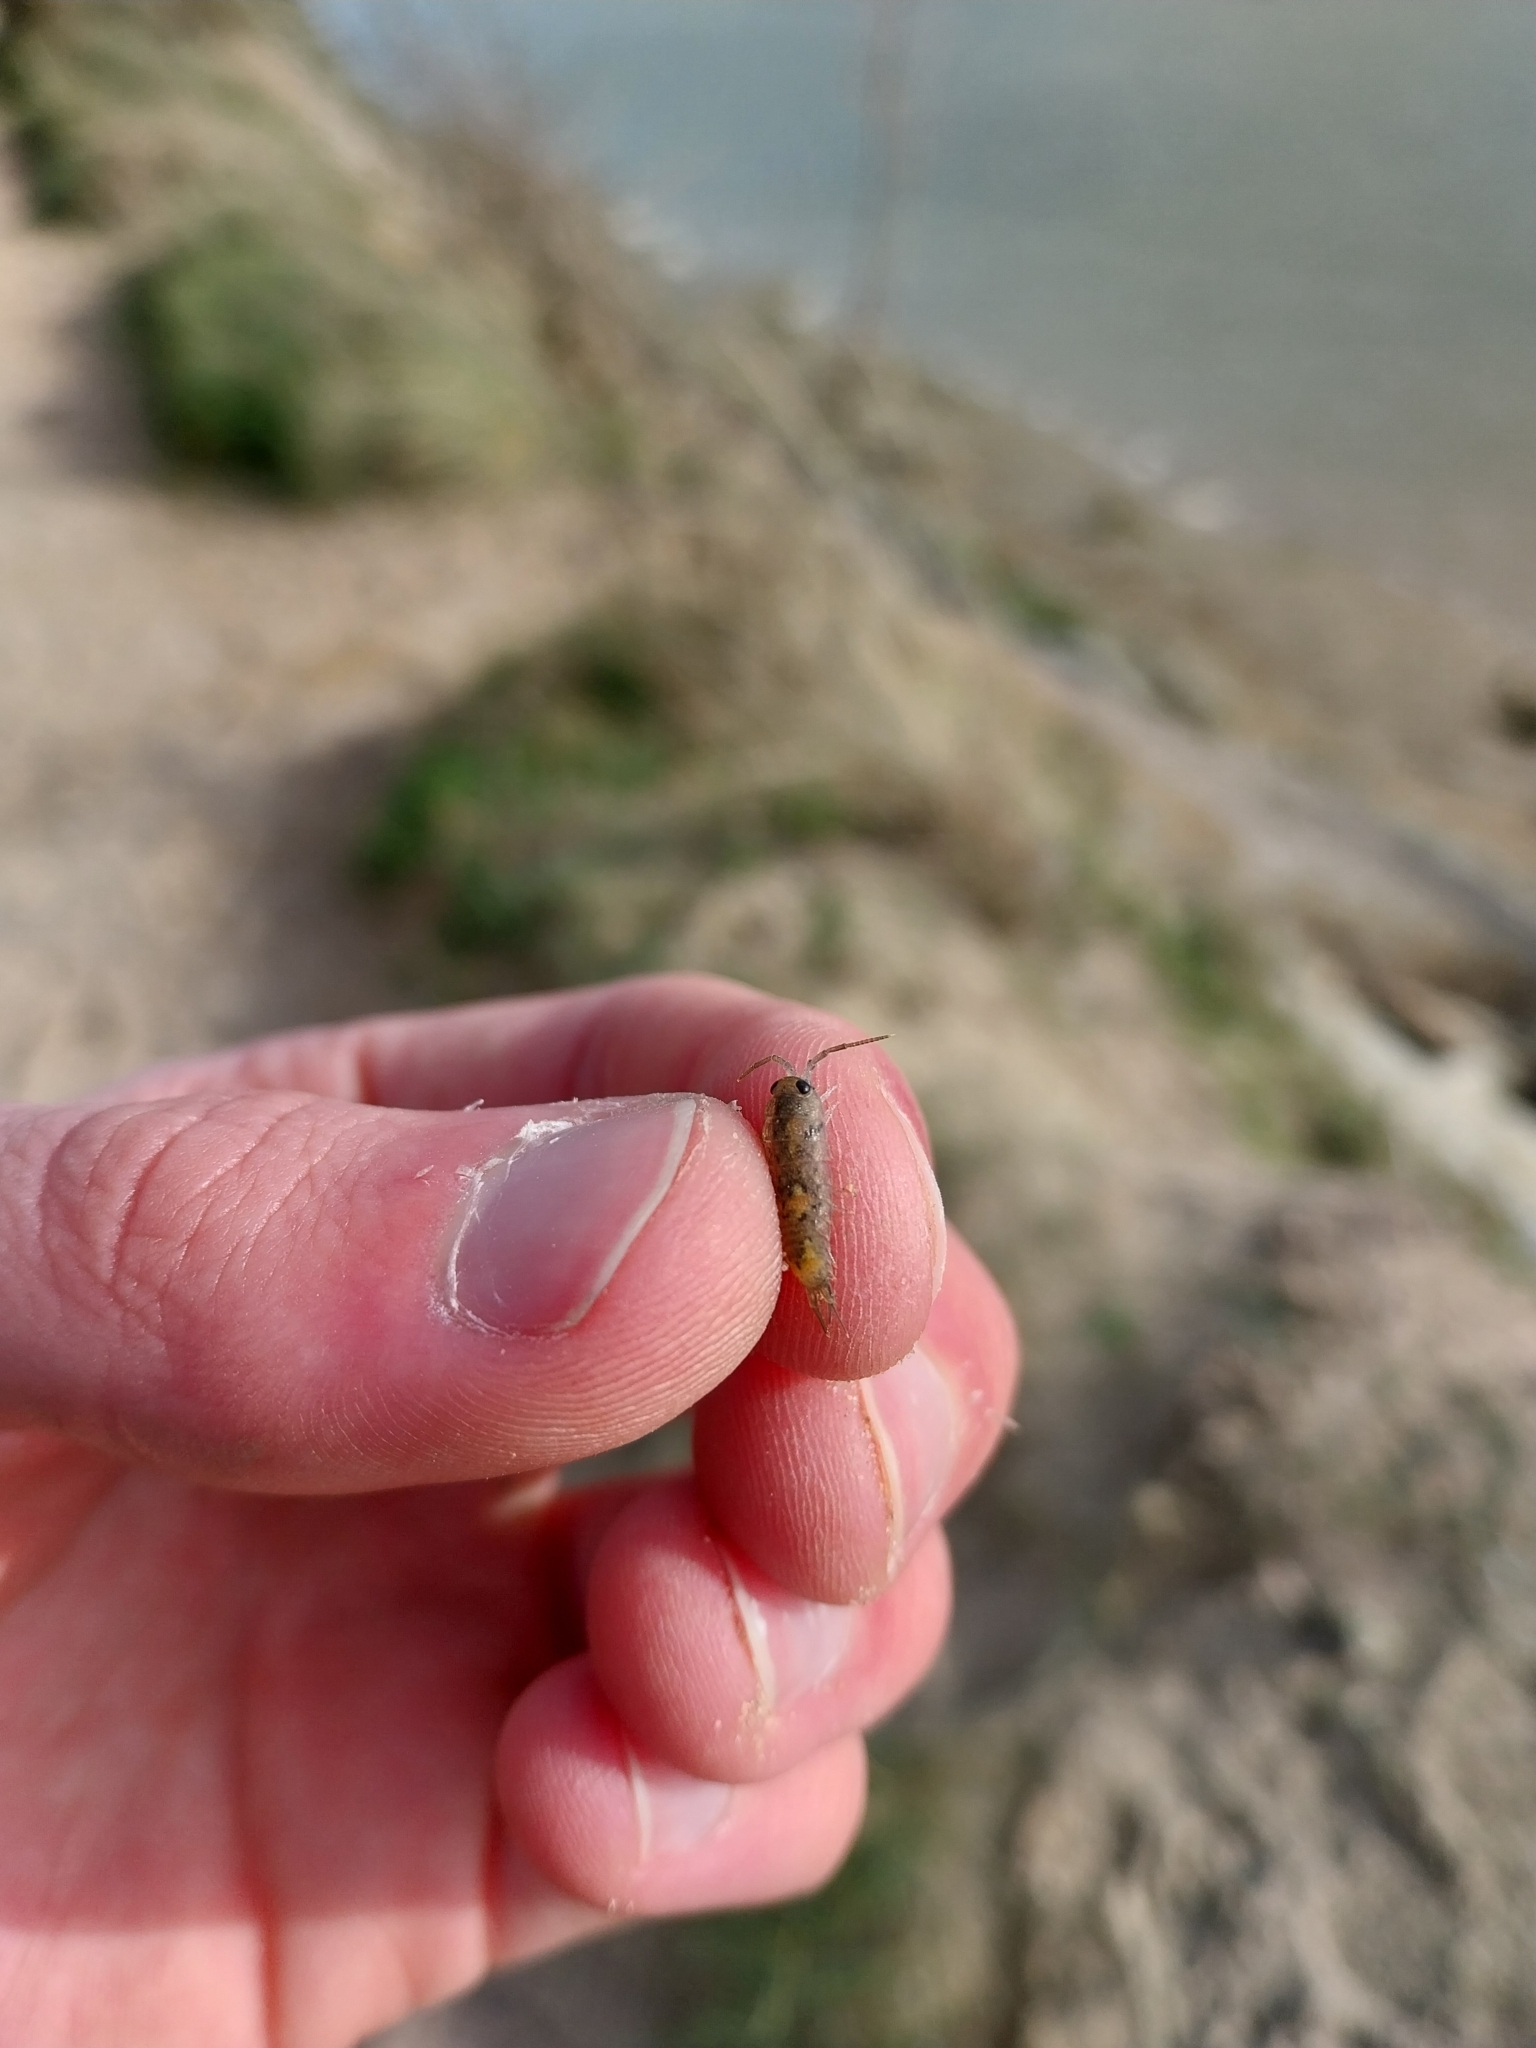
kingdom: Animalia
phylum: Arthropoda
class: Malacostraca
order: Isopoda
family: Ligiidae
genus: Ligia
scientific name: Ligia oceanica
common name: Sea slater
